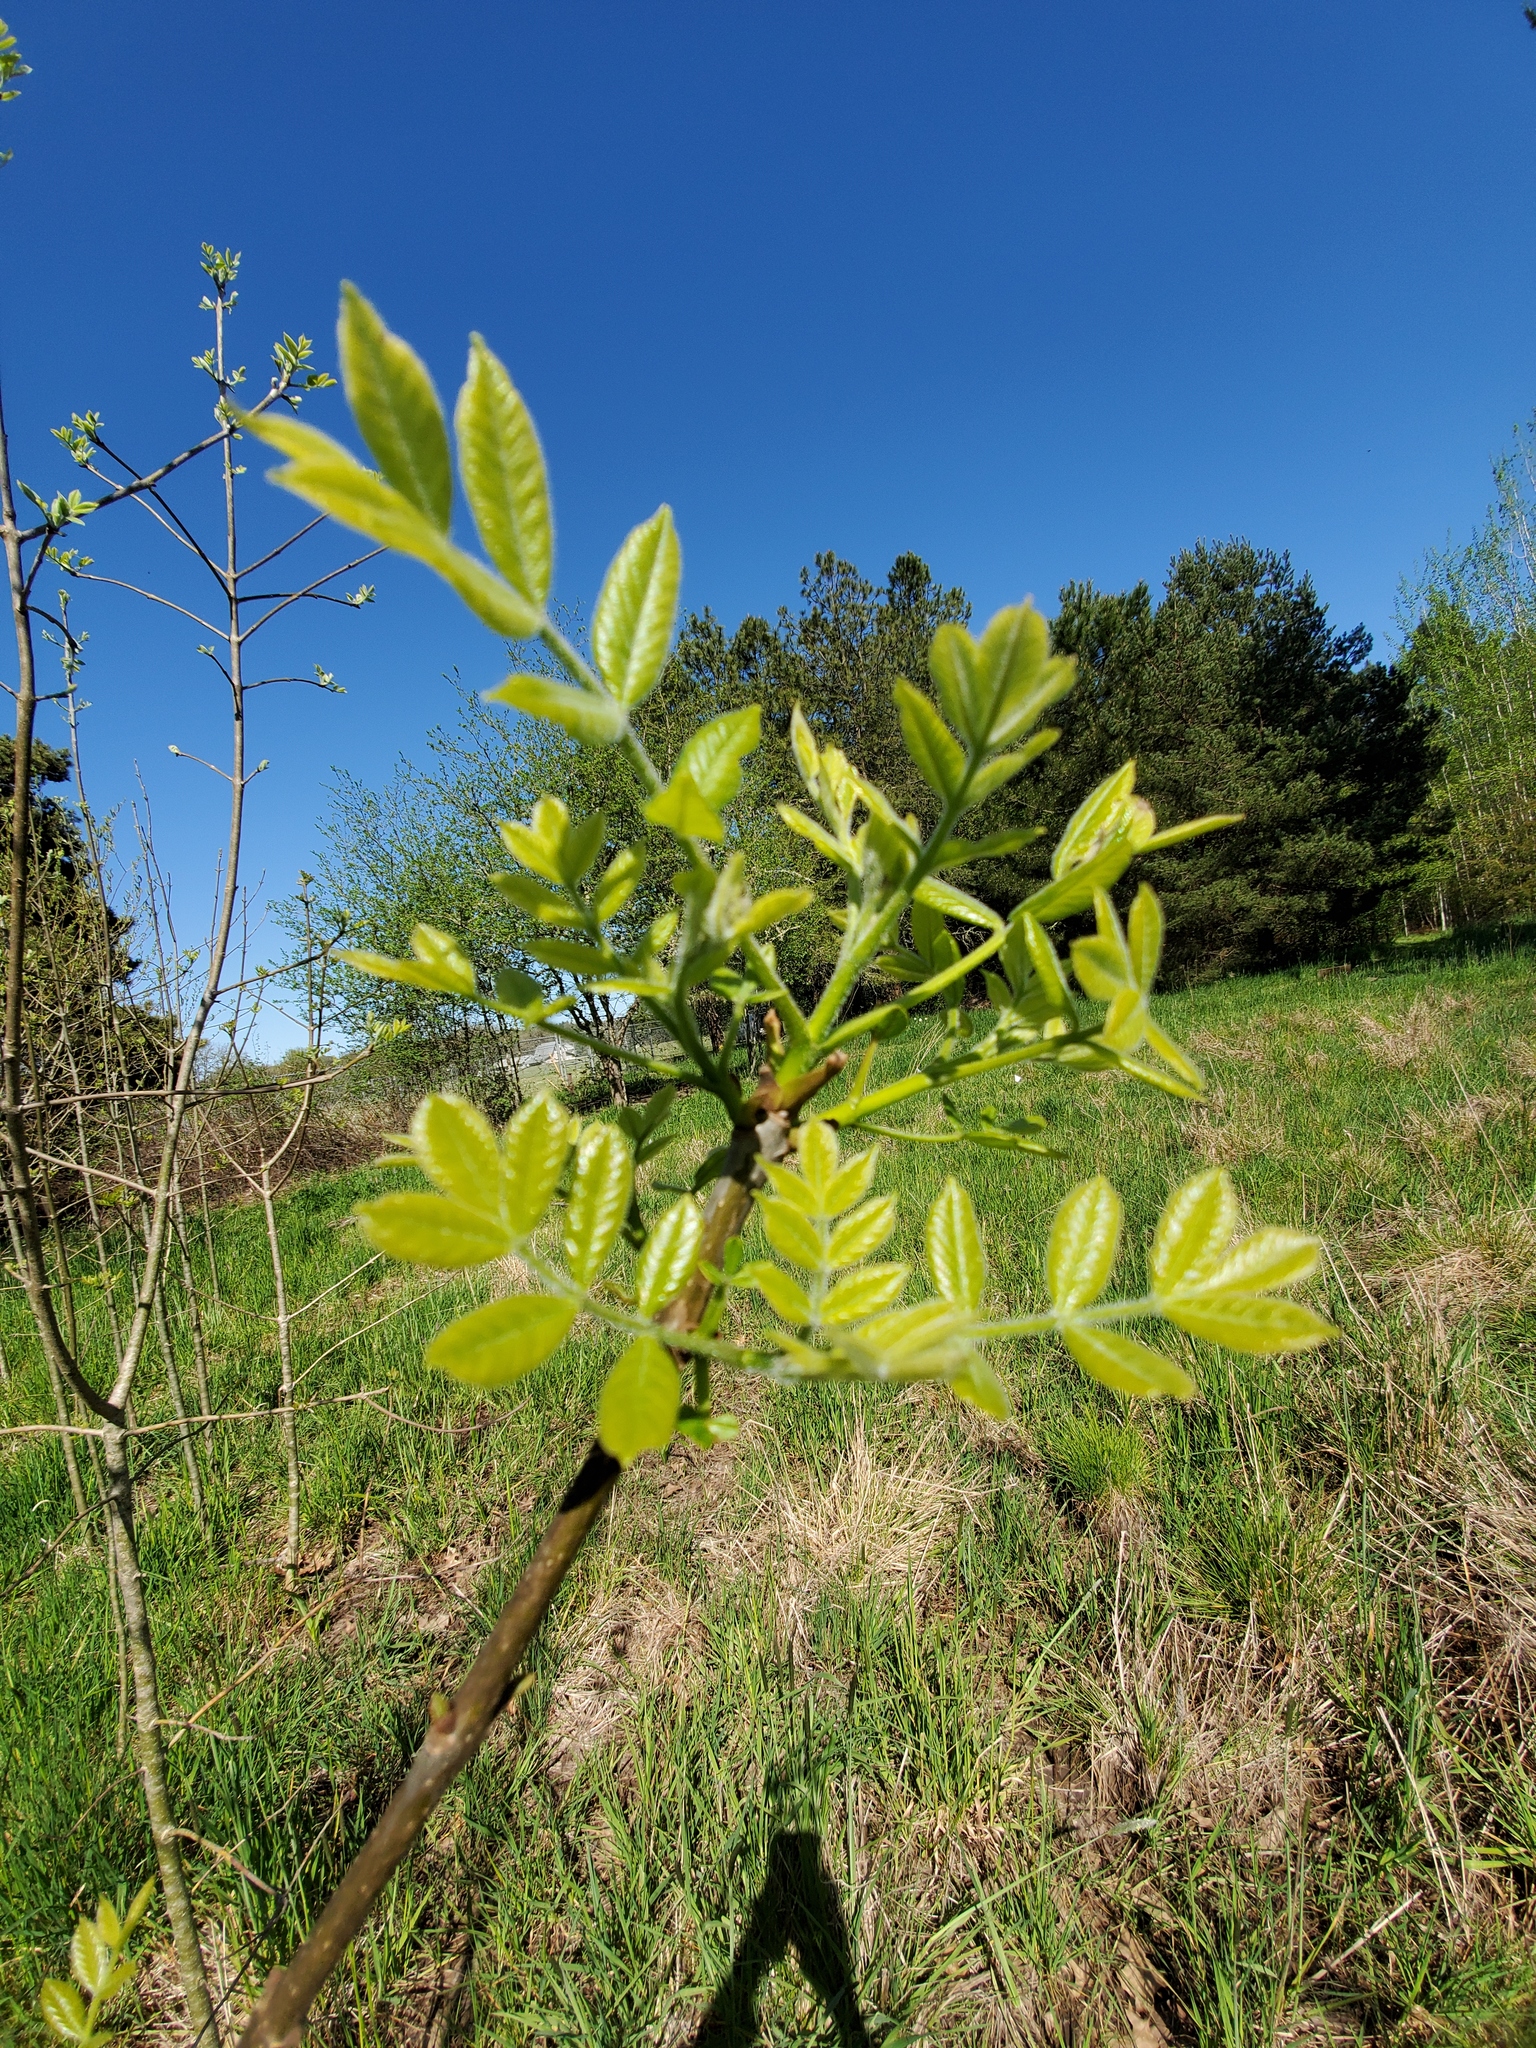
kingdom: Plantae
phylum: Tracheophyta
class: Magnoliopsida
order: Lamiales
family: Oleaceae
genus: Fraxinus
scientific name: Fraxinus latifolia
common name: Oregon ash
